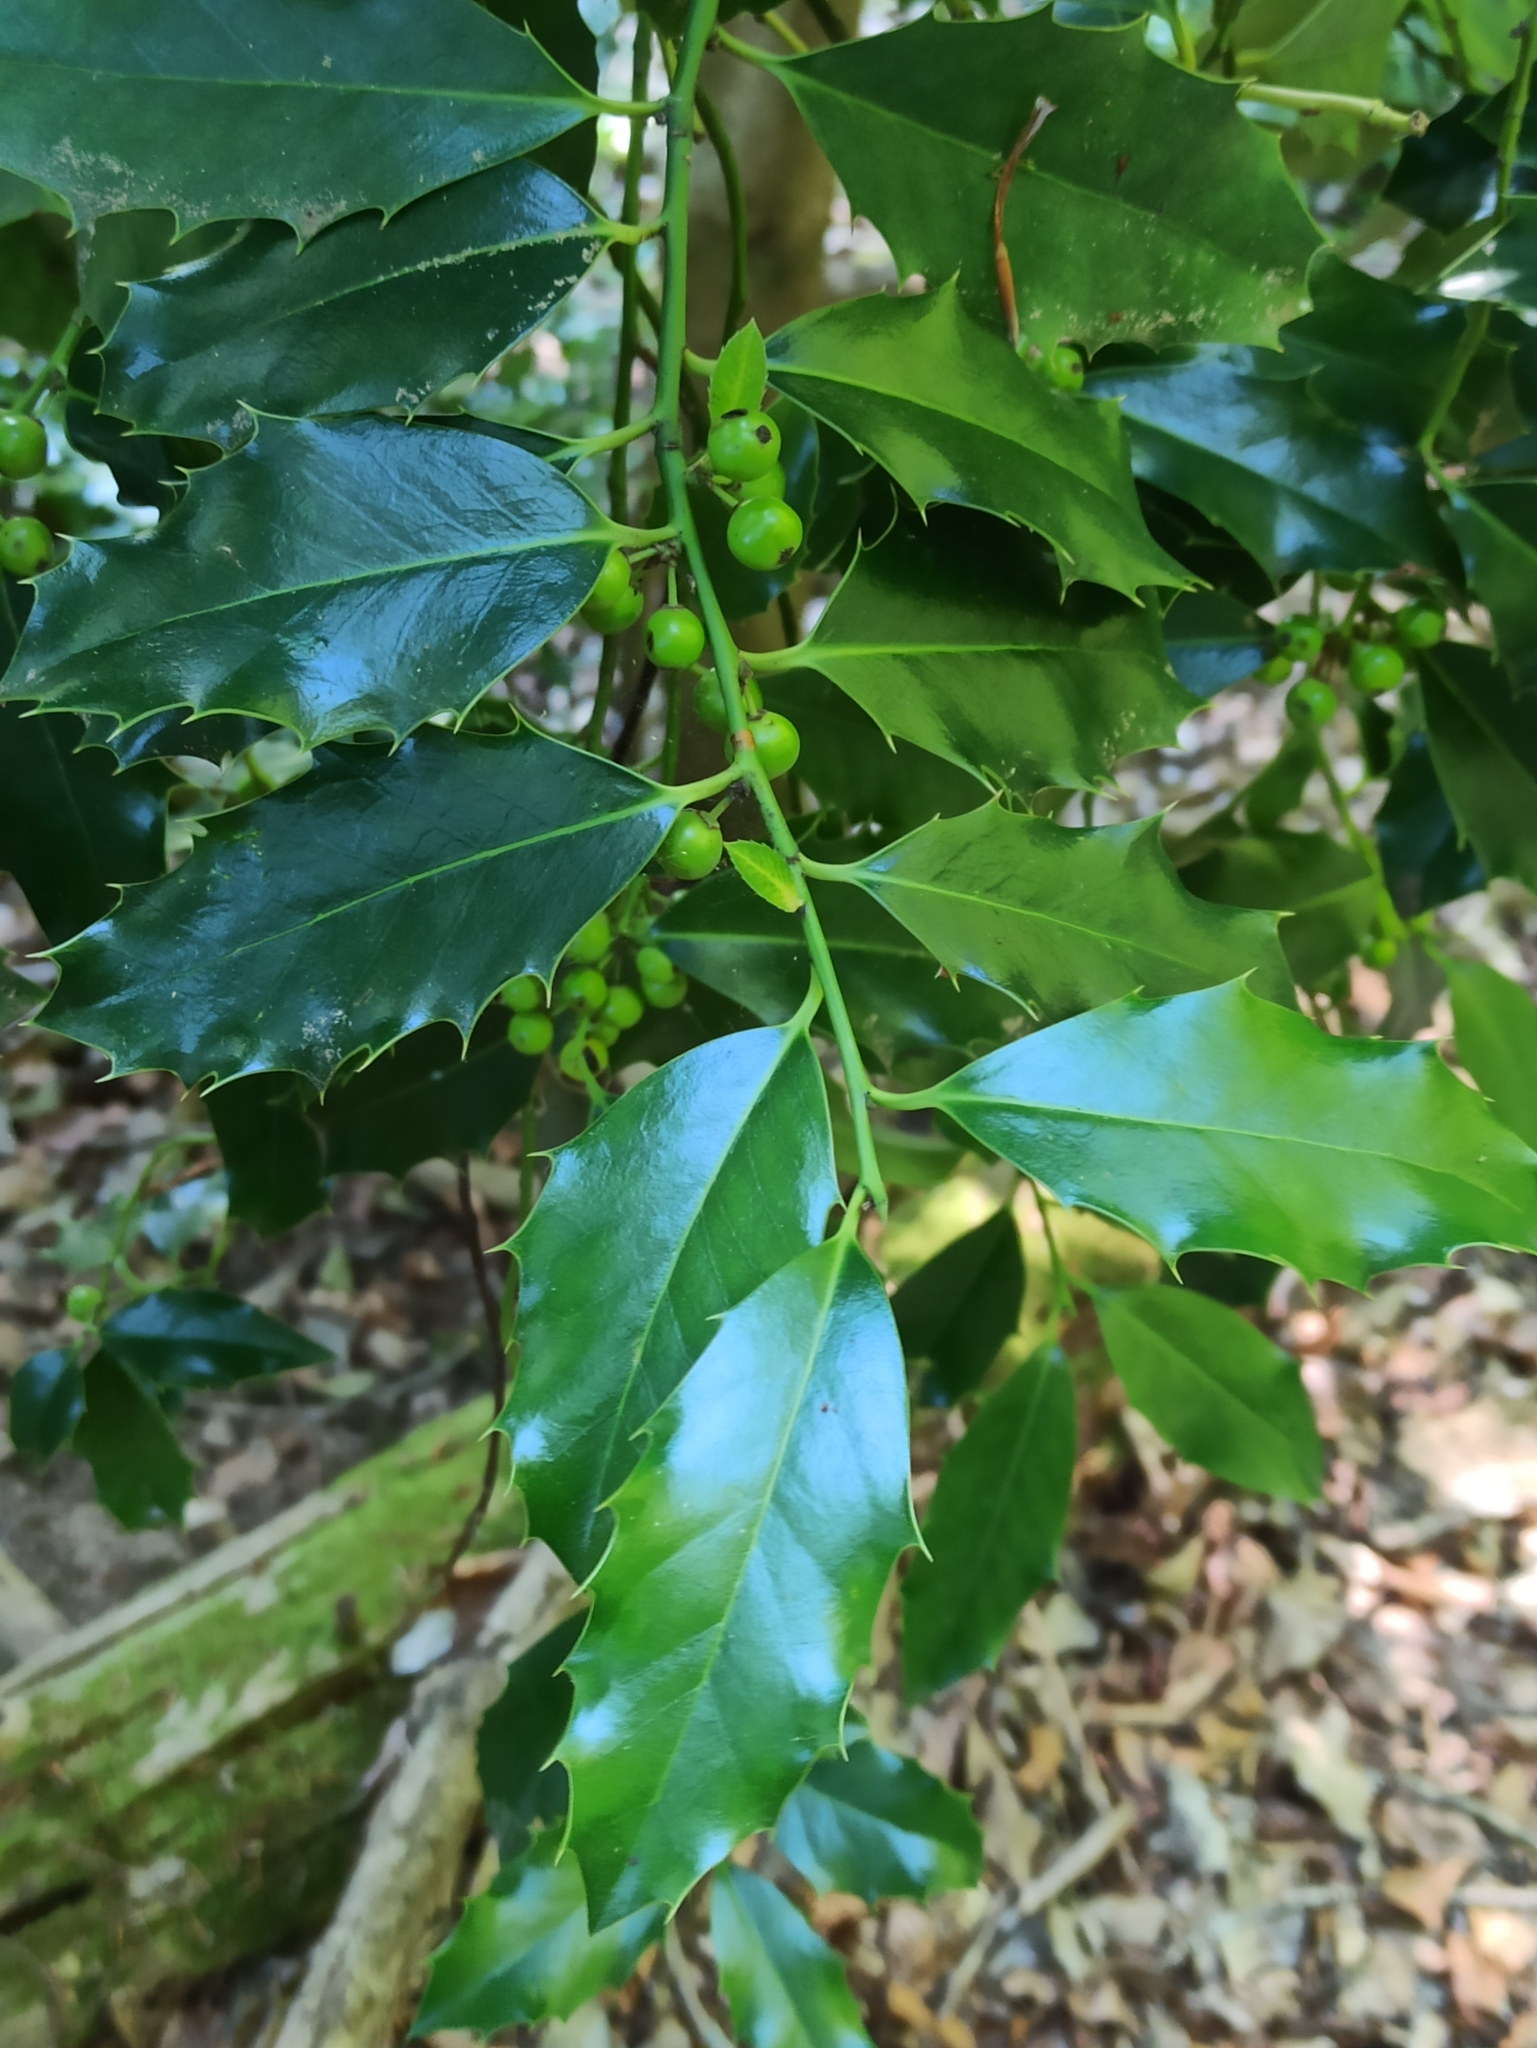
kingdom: Plantae
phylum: Tracheophyta
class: Magnoliopsida
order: Aquifoliales
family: Aquifoliaceae
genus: Ilex
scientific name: Ilex aquifolium
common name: English holly
